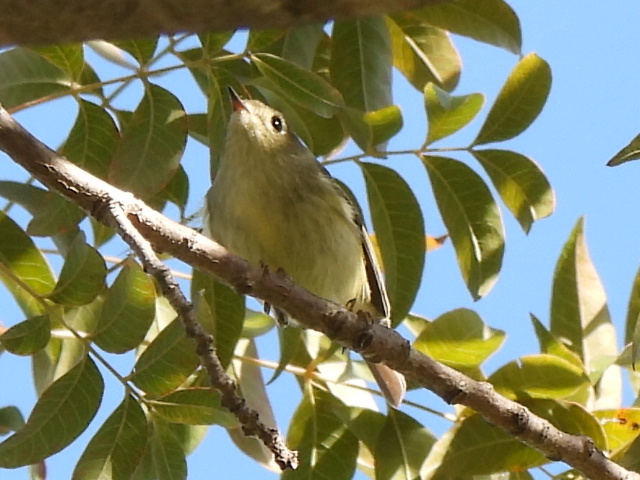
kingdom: Animalia
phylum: Chordata
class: Aves
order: Passeriformes
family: Regulidae
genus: Regulus
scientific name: Regulus calendula
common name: Ruby-crowned kinglet
